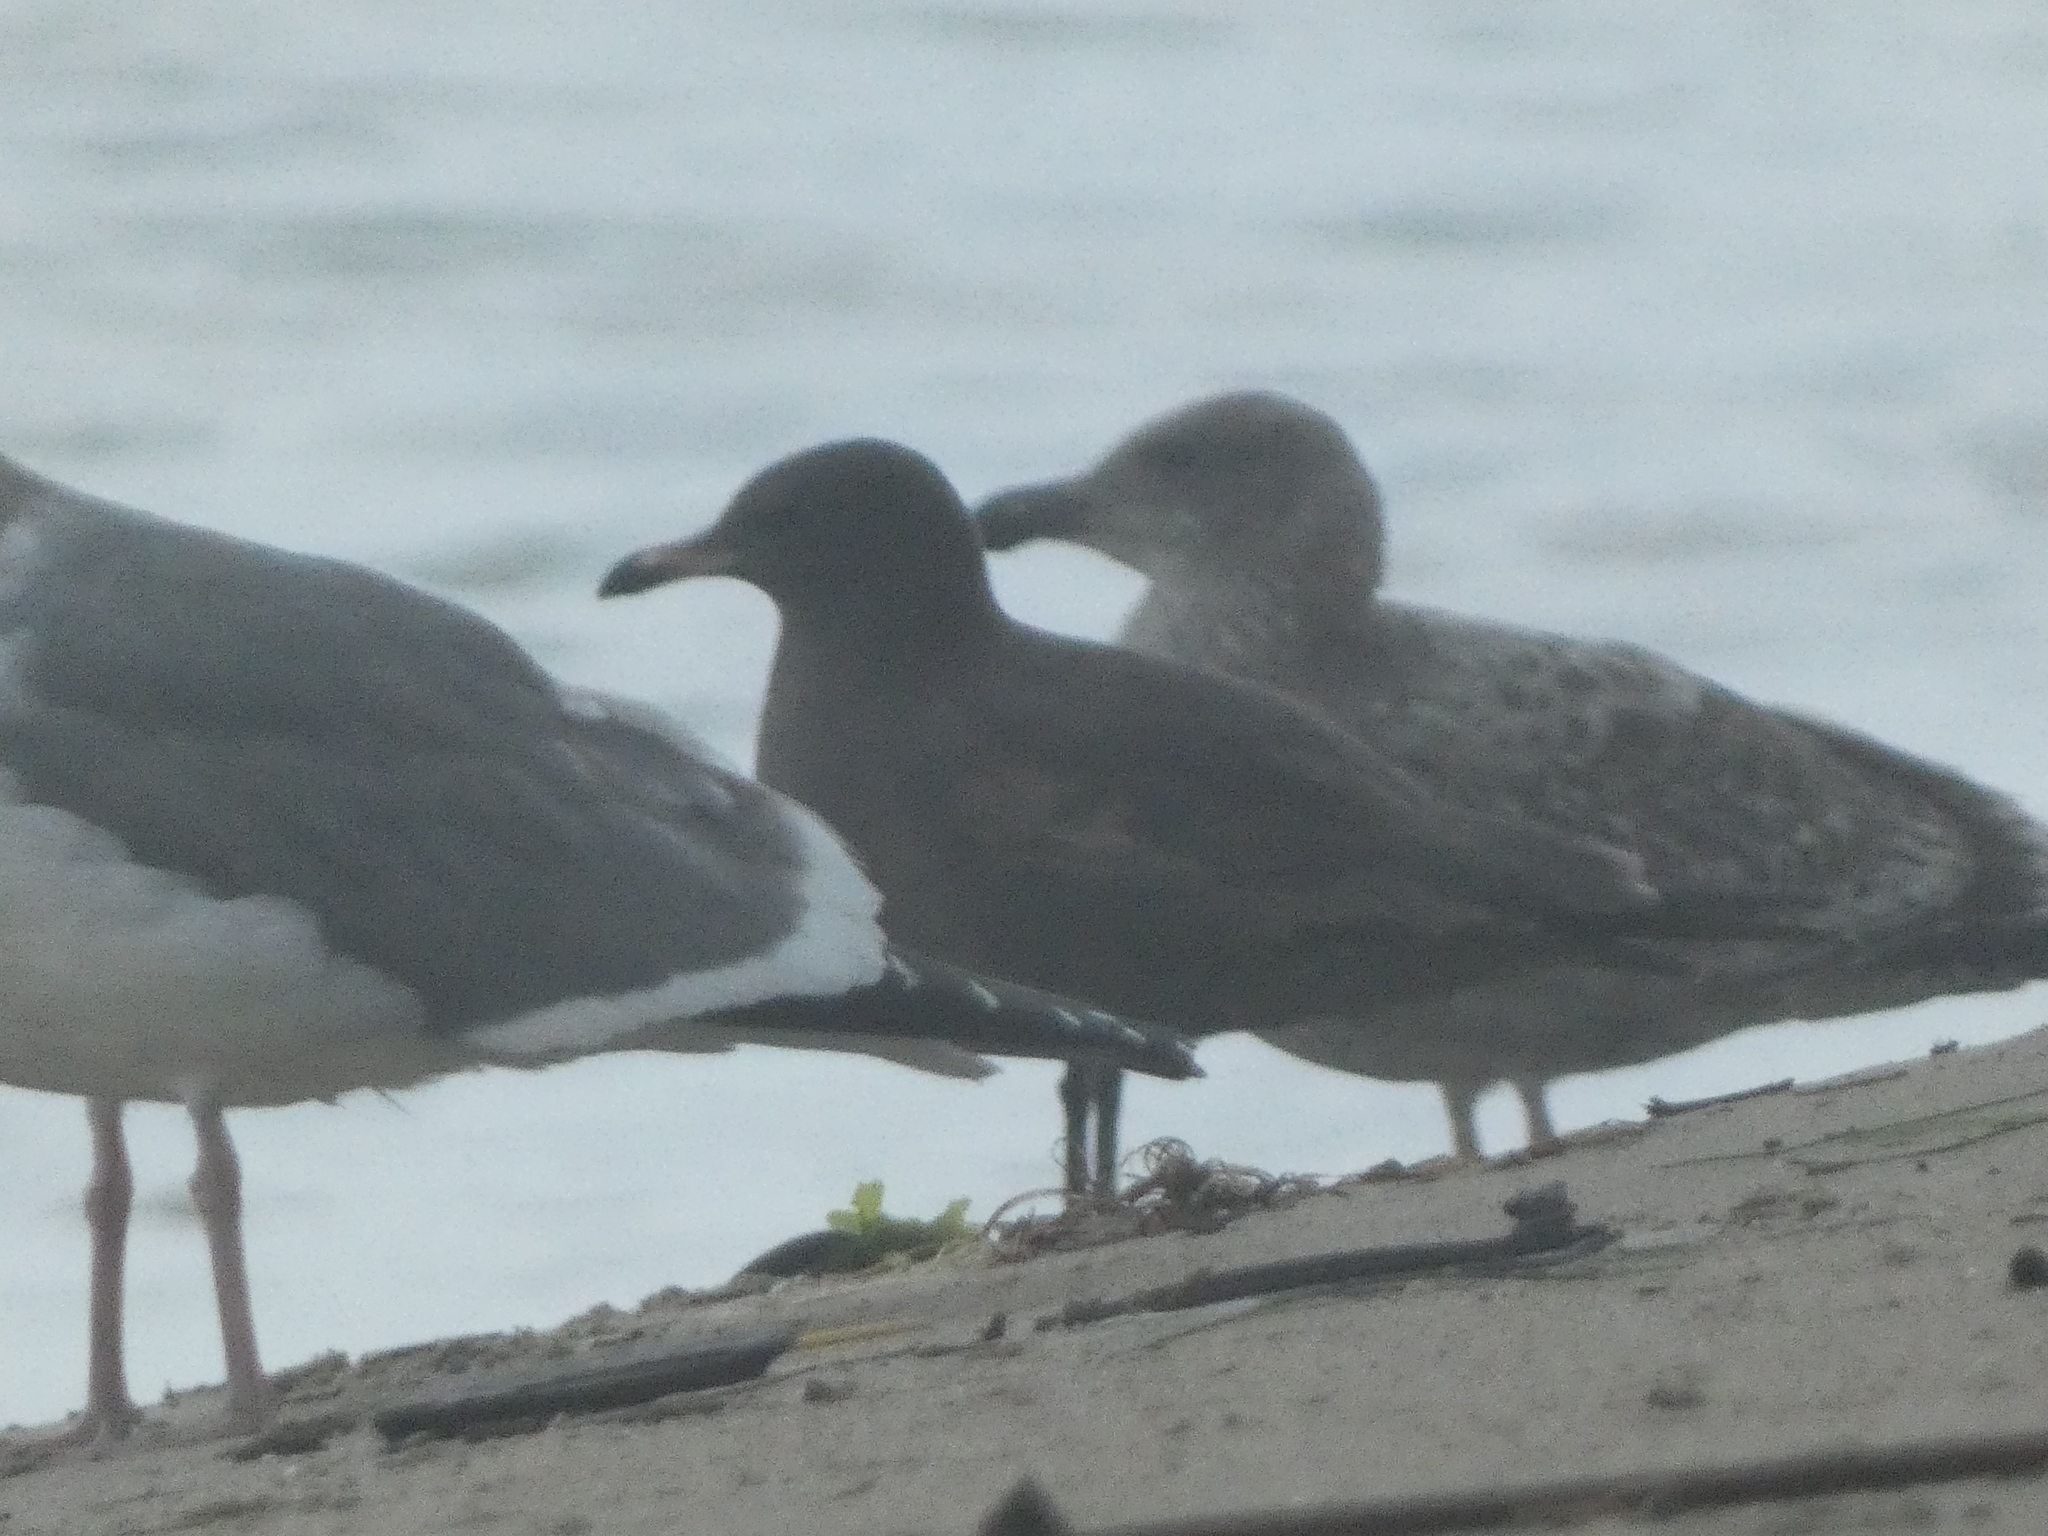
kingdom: Animalia
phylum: Chordata
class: Aves
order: Charadriiformes
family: Laridae
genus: Larus
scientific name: Larus heermanni
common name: Heermann's gull
